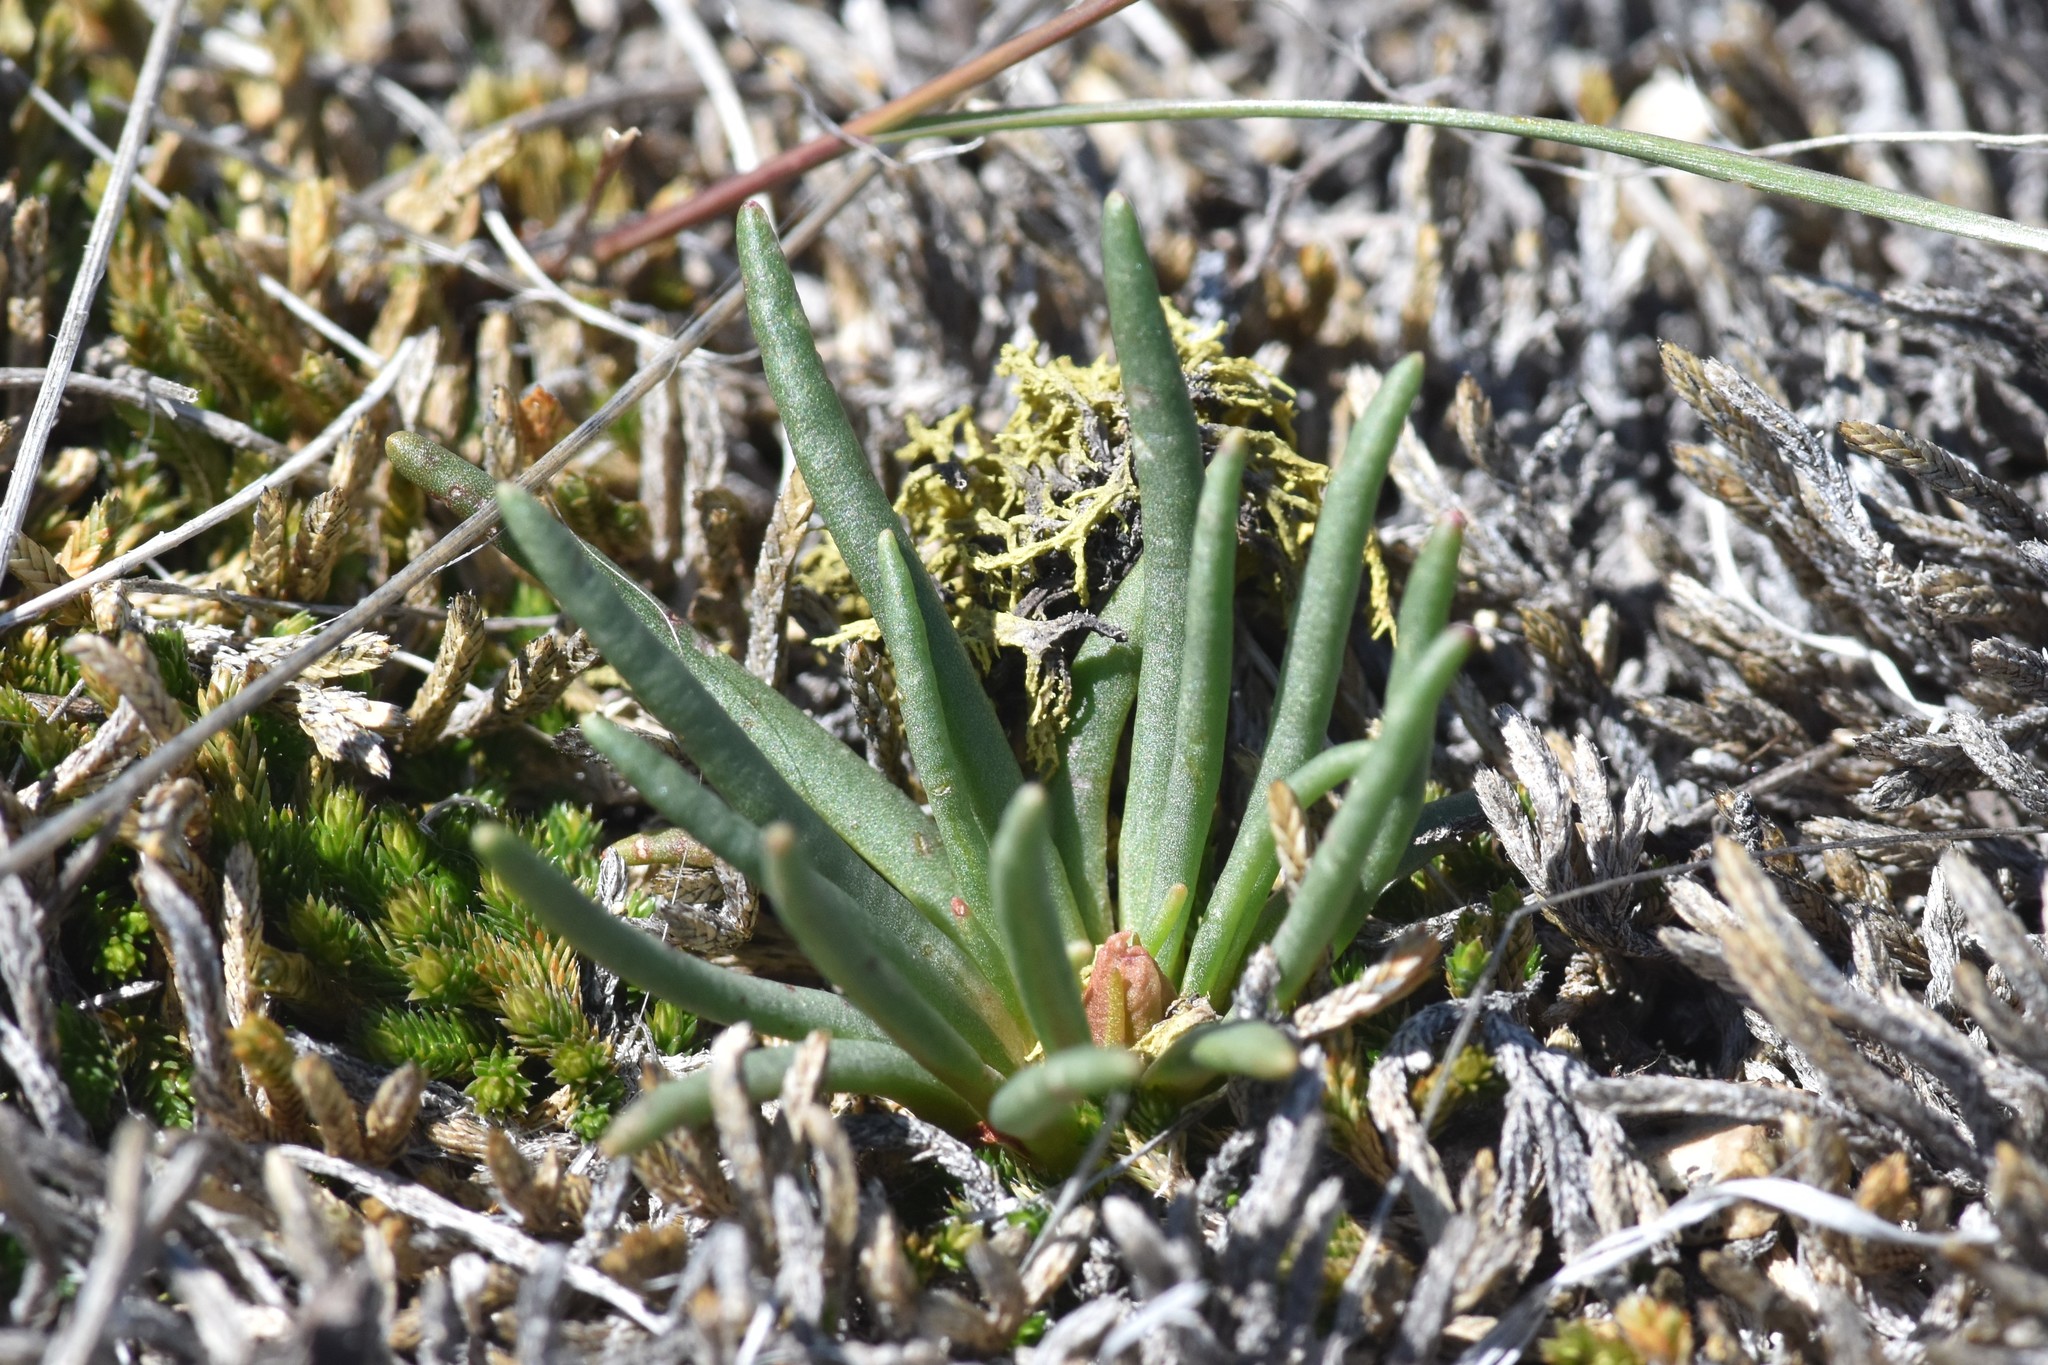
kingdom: Plantae
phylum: Tracheophyta
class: Magnoliopsida
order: Caryophyllales
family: Montiaceae
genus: Lewisia
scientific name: Lewisia rediviva
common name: Bitter-root
